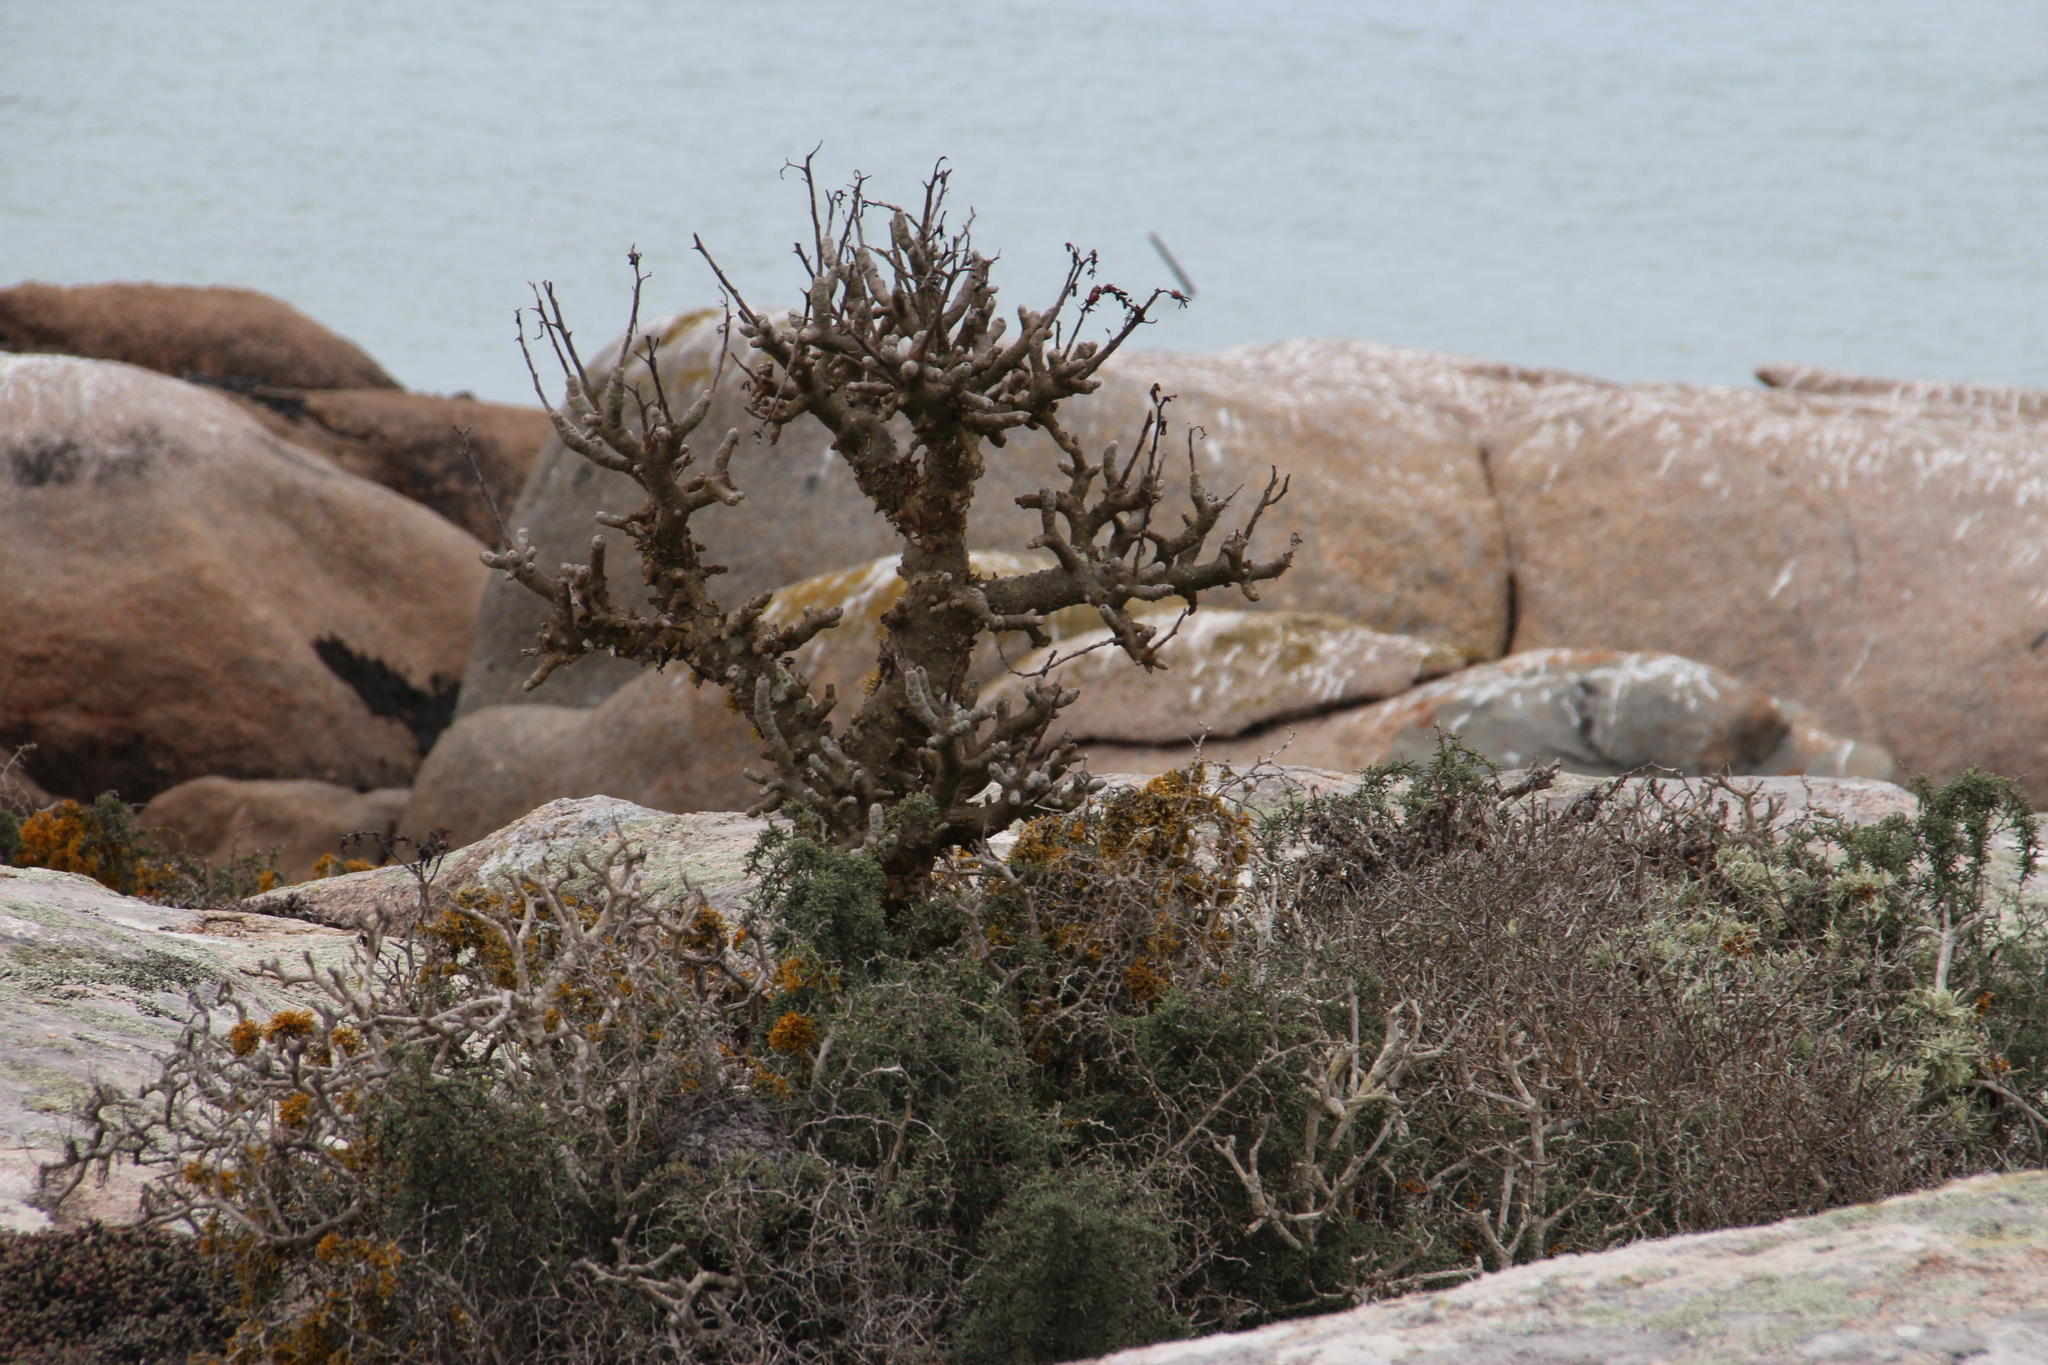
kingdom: Plantae
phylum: Tracheophyta
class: Magnoliopsida
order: Saxifragales
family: Crassulaceae
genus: Tylecodon
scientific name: Tylecodon paniculatus
